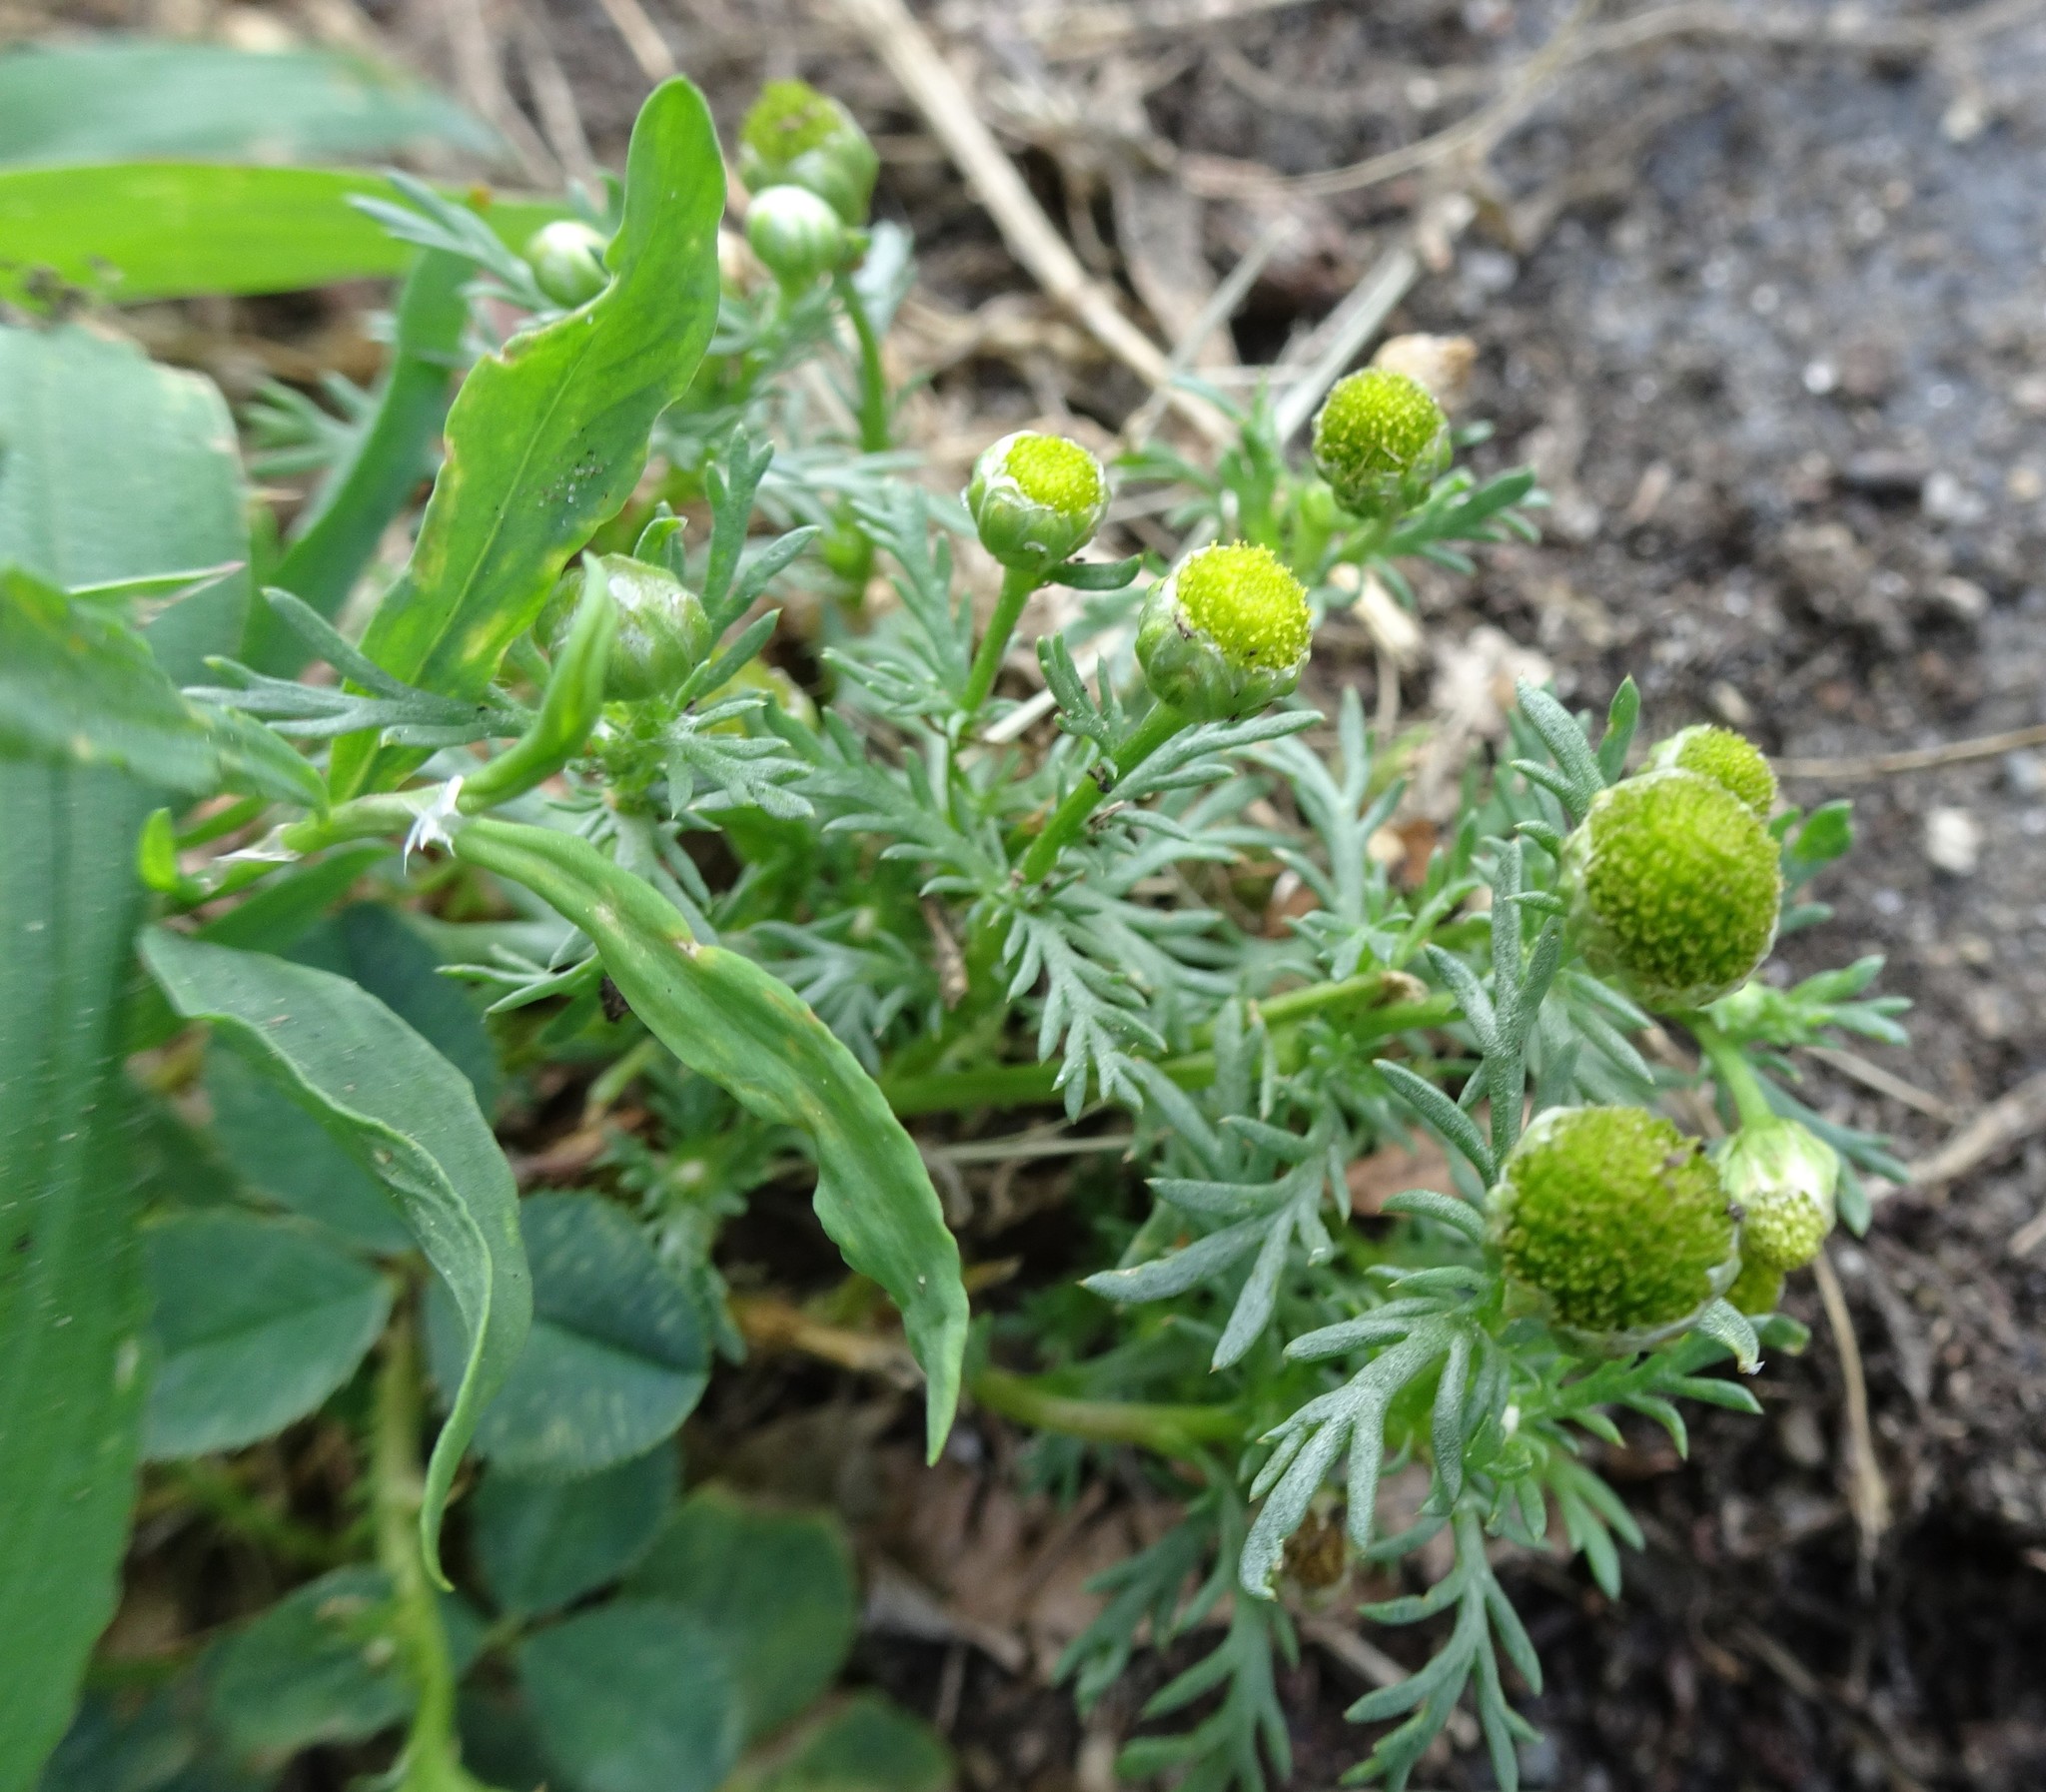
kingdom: Plantae
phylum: Tracheophyta
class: Magnoliopsida
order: Asterales
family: Asteraceae
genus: Matricaria
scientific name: Matricaria discoidea
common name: Disc mayweed
